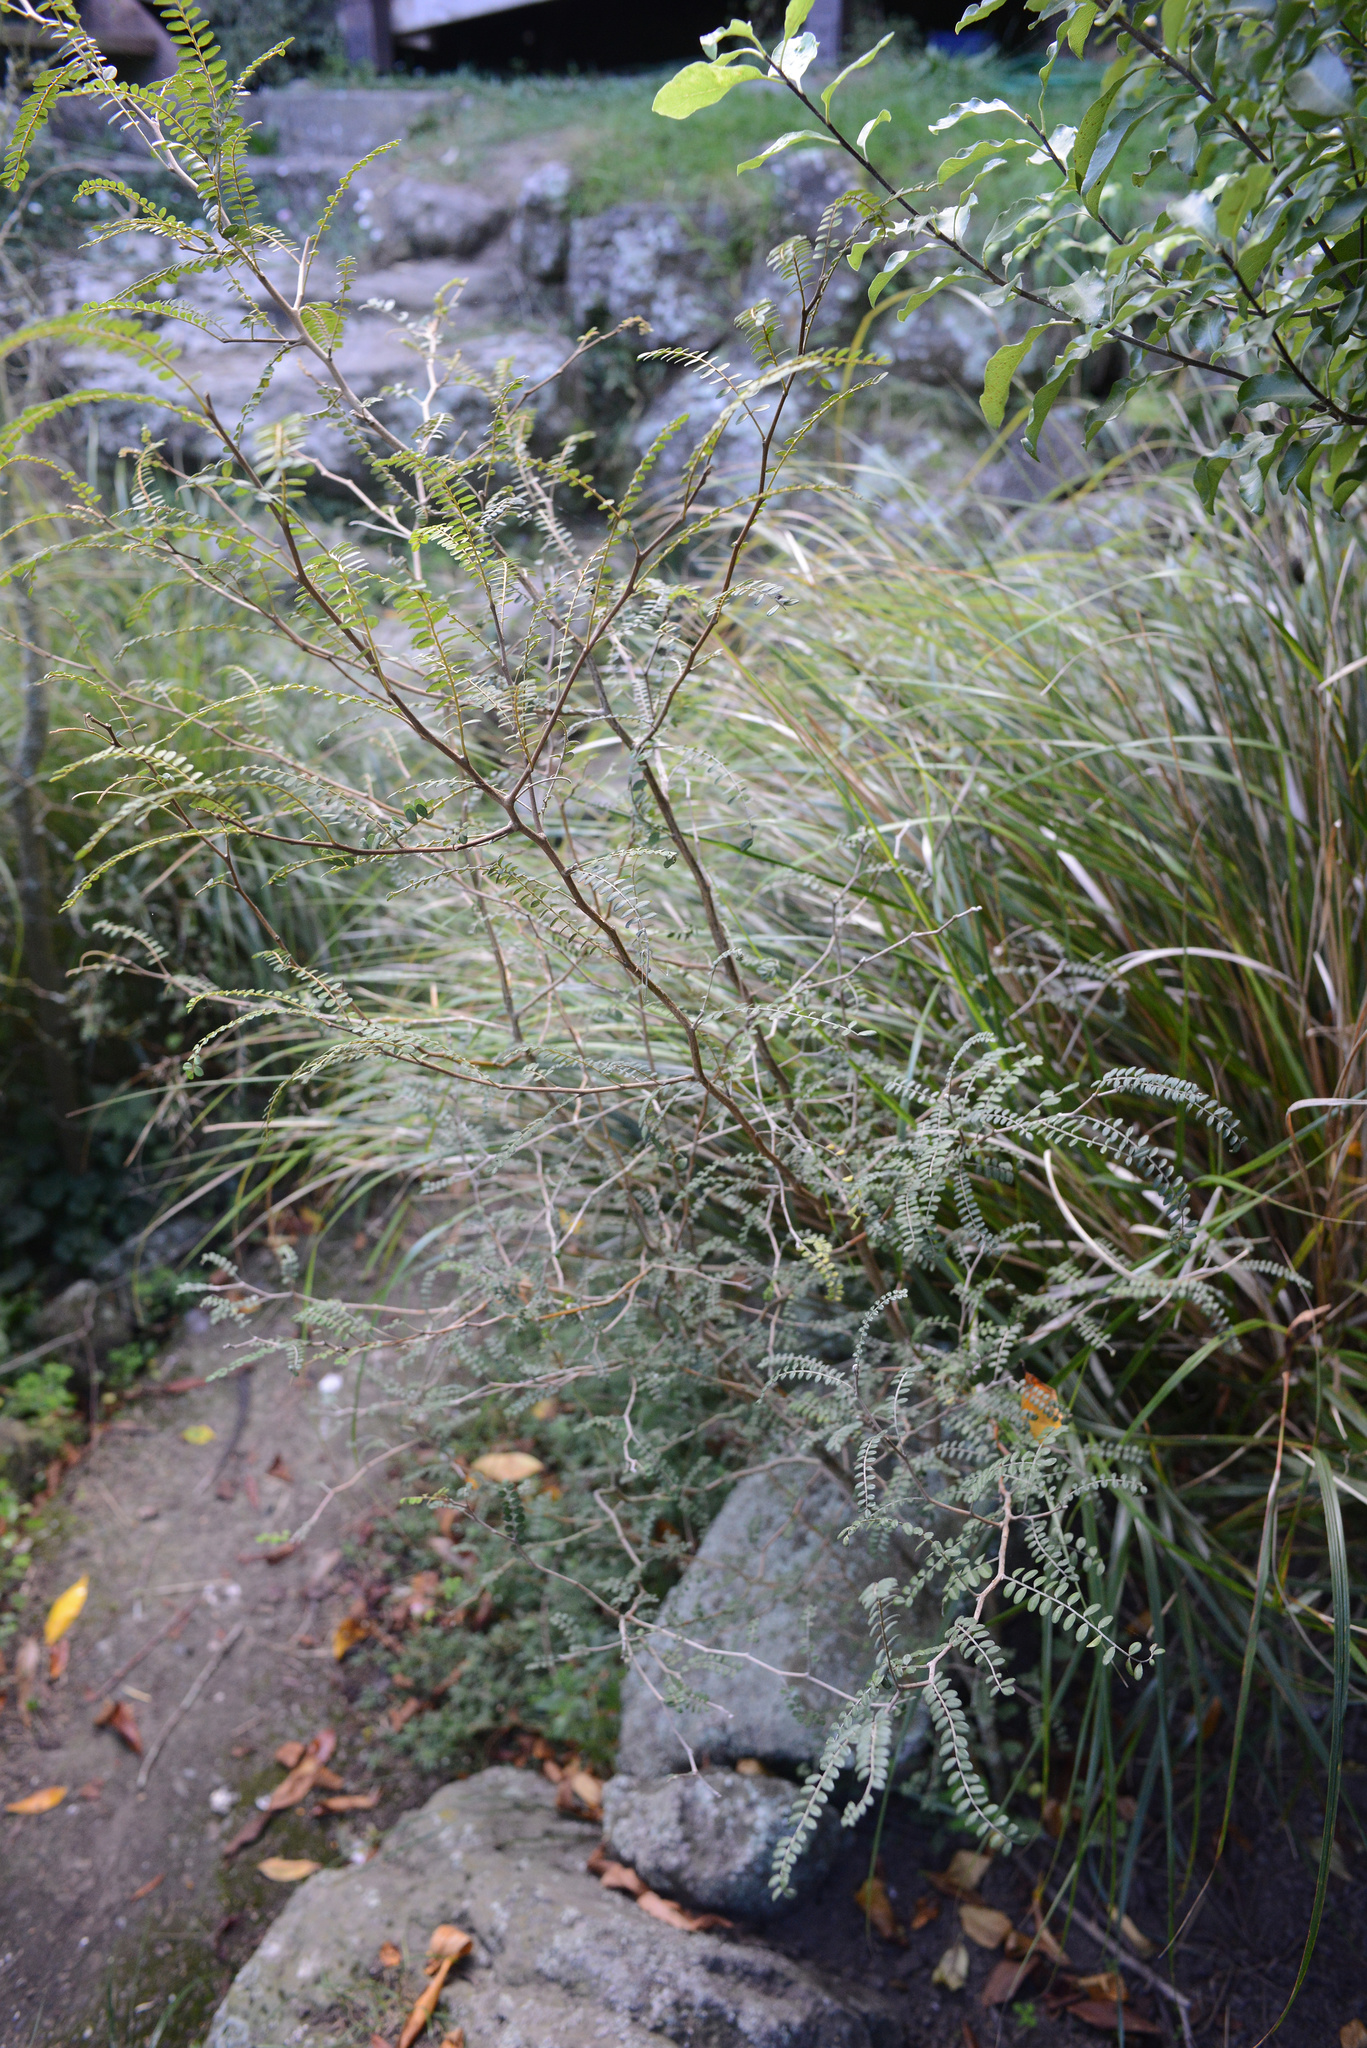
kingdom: Plantae
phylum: Tracheophyta
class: Magnoliopsida
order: Fabales
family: Fabaceae
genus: Sophora
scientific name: Sophora microphylla
